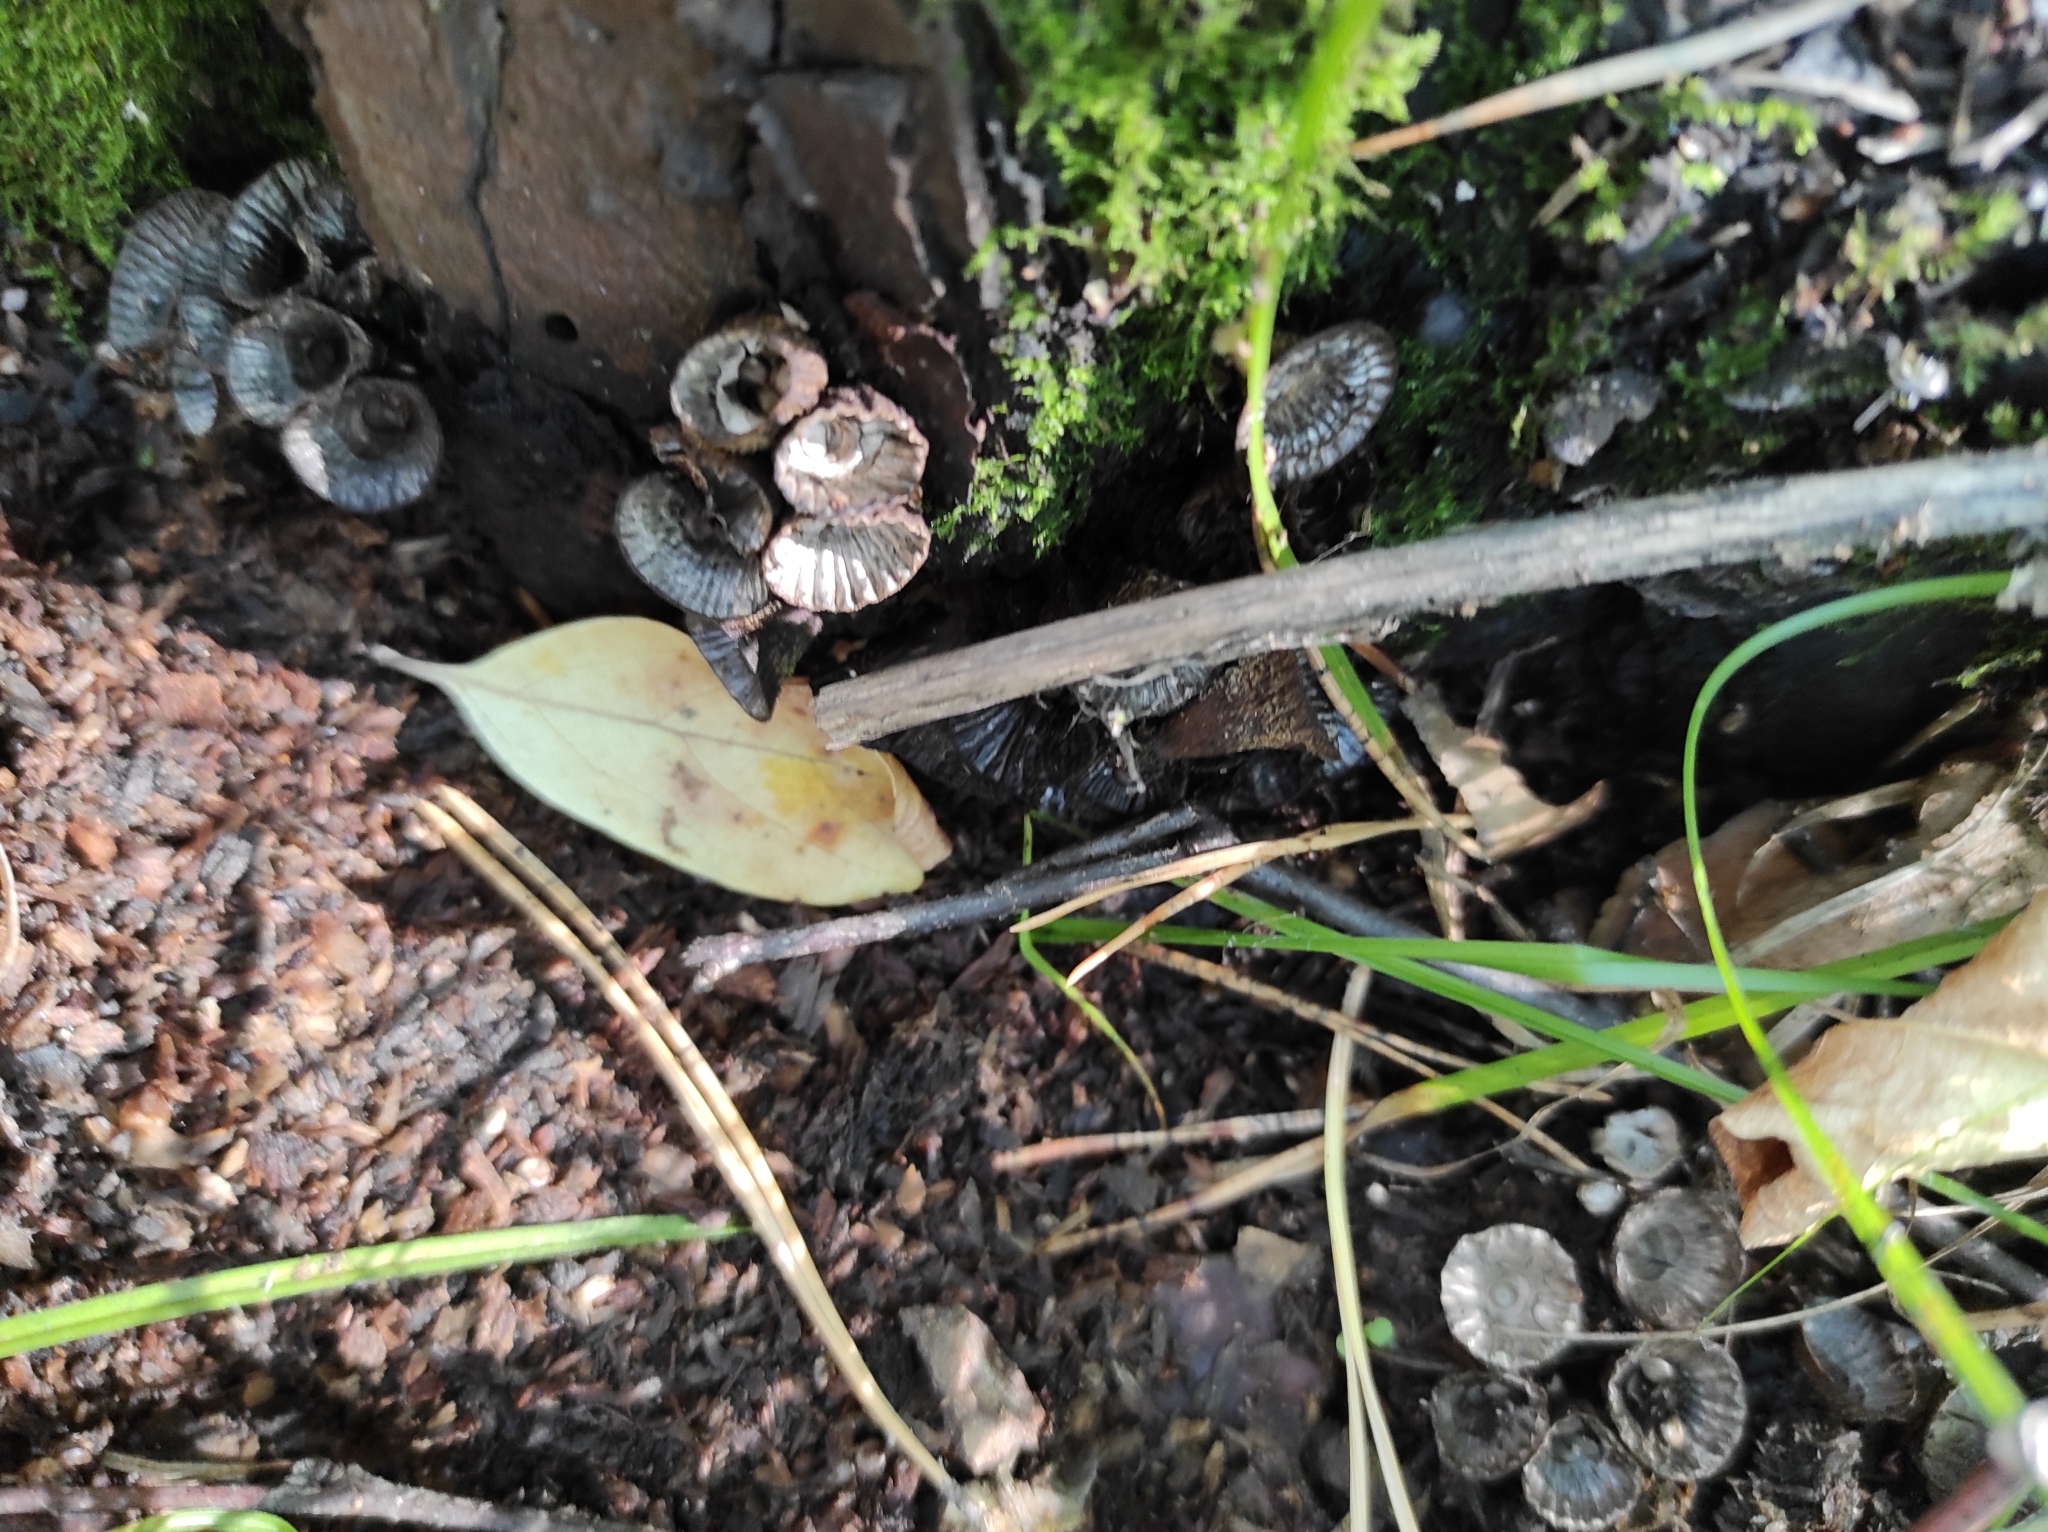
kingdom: Fungi
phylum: Basidiomycota
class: Agaricomycetes
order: Agaricales
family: Agaricaceae
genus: Cyathus
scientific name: Cyathus striatus
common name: Fluted bird's nest
